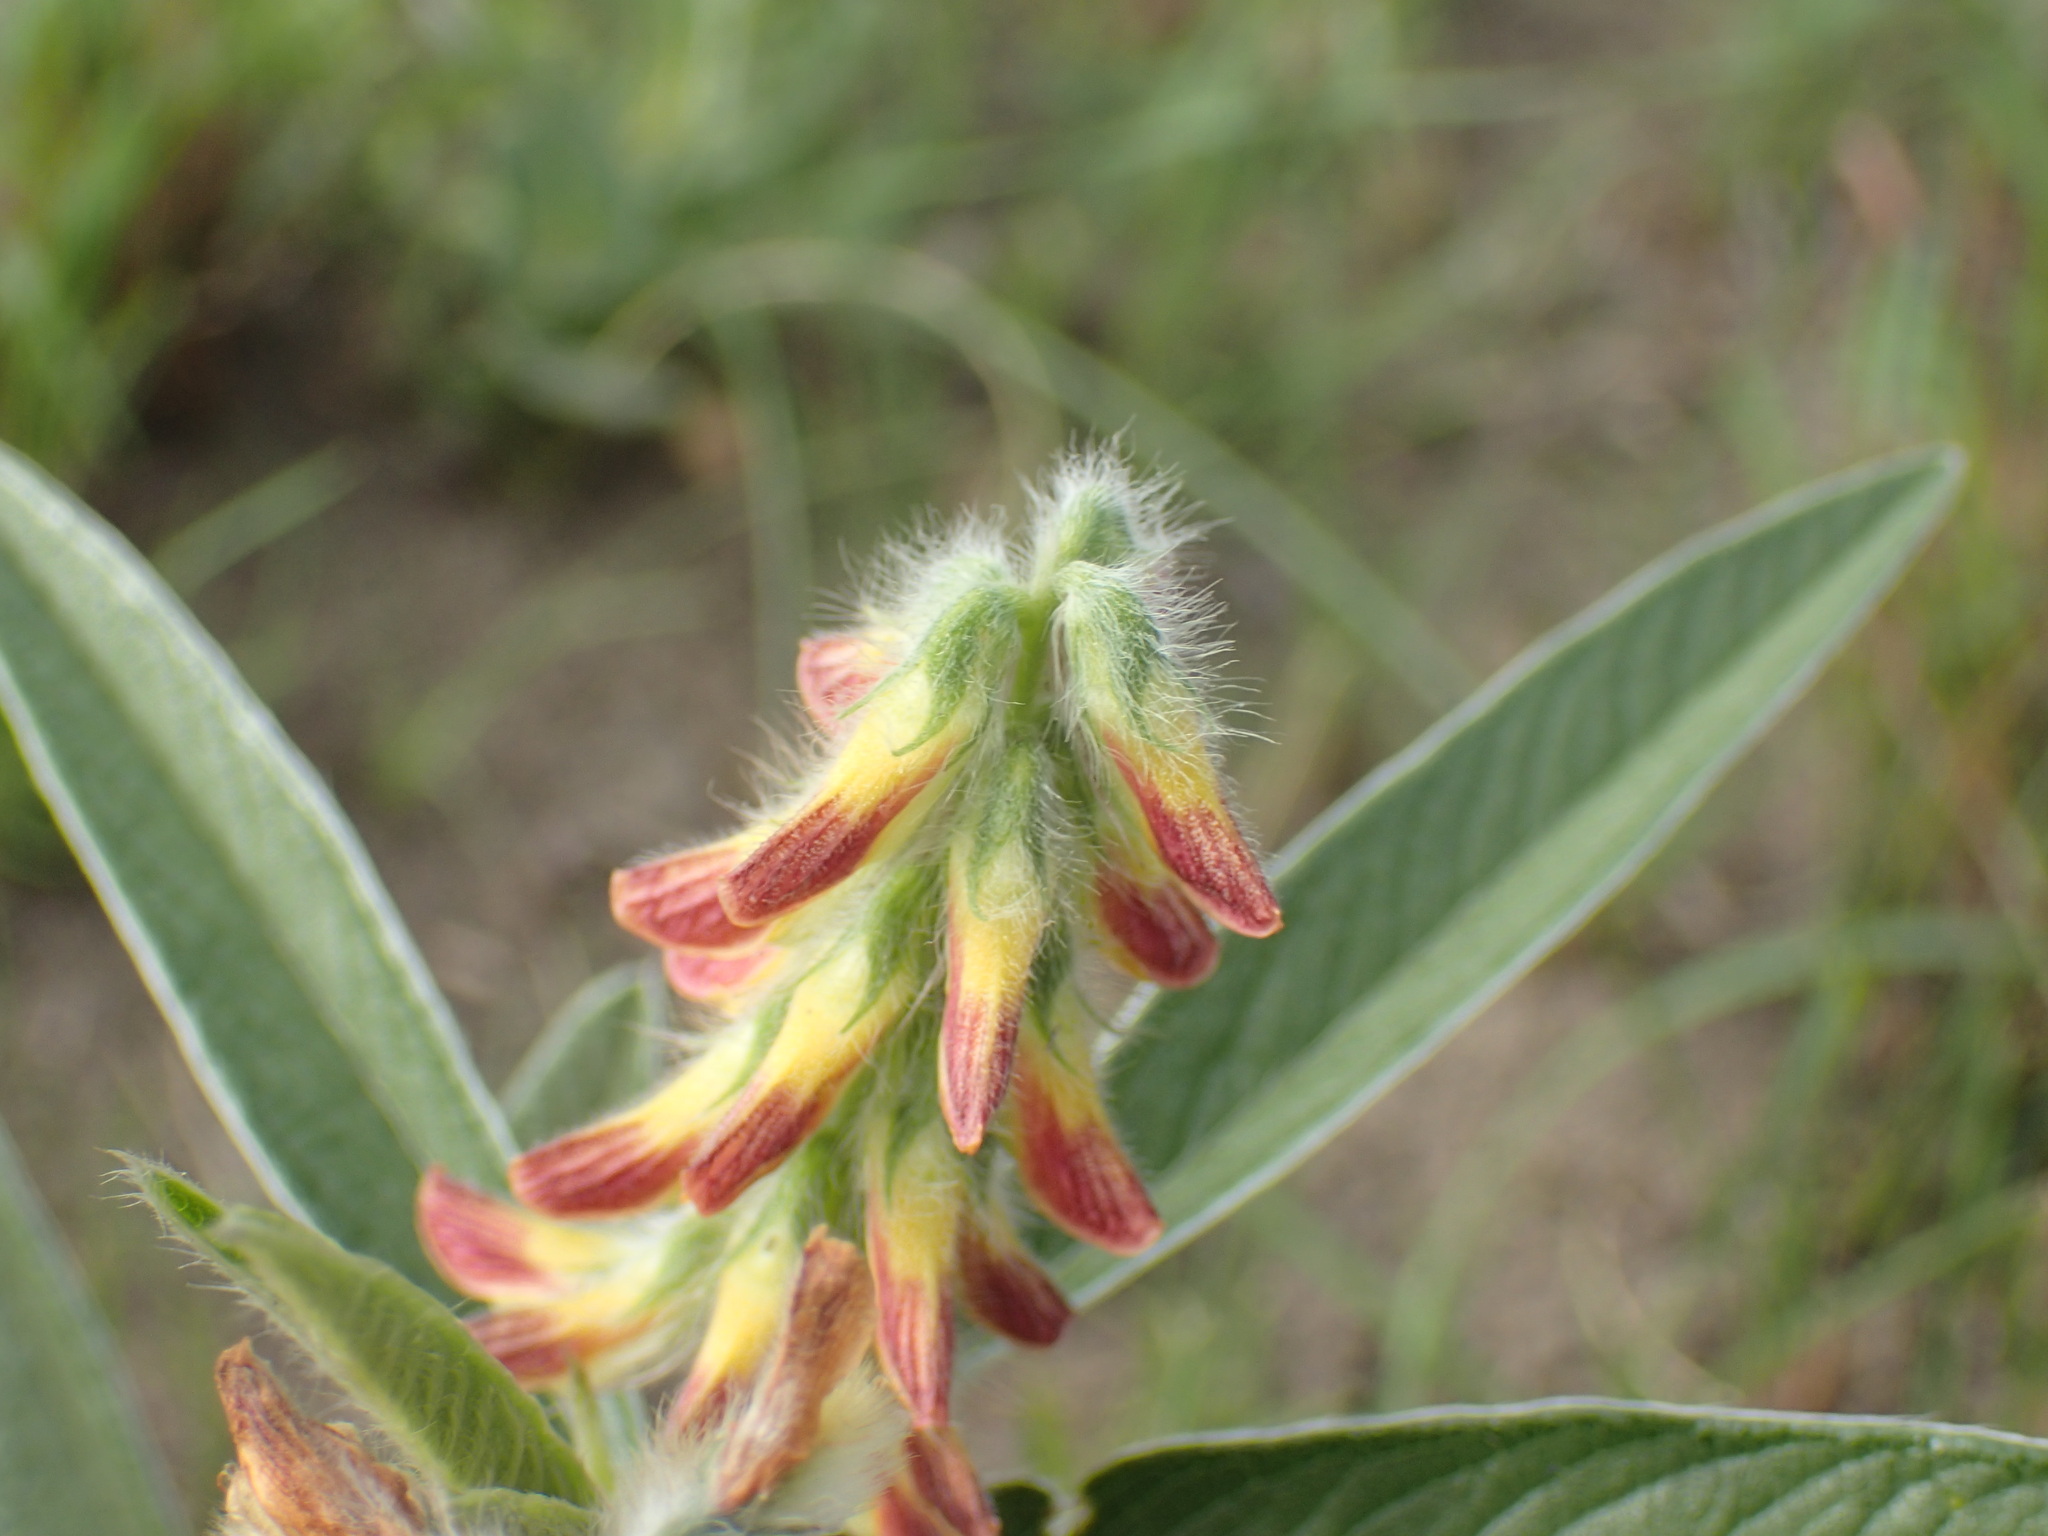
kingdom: Plantae
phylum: Tracheophyta
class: Magnoliopsida
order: Fabales
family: Fabaceae
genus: Eriosema
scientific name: Eriosema salignum
